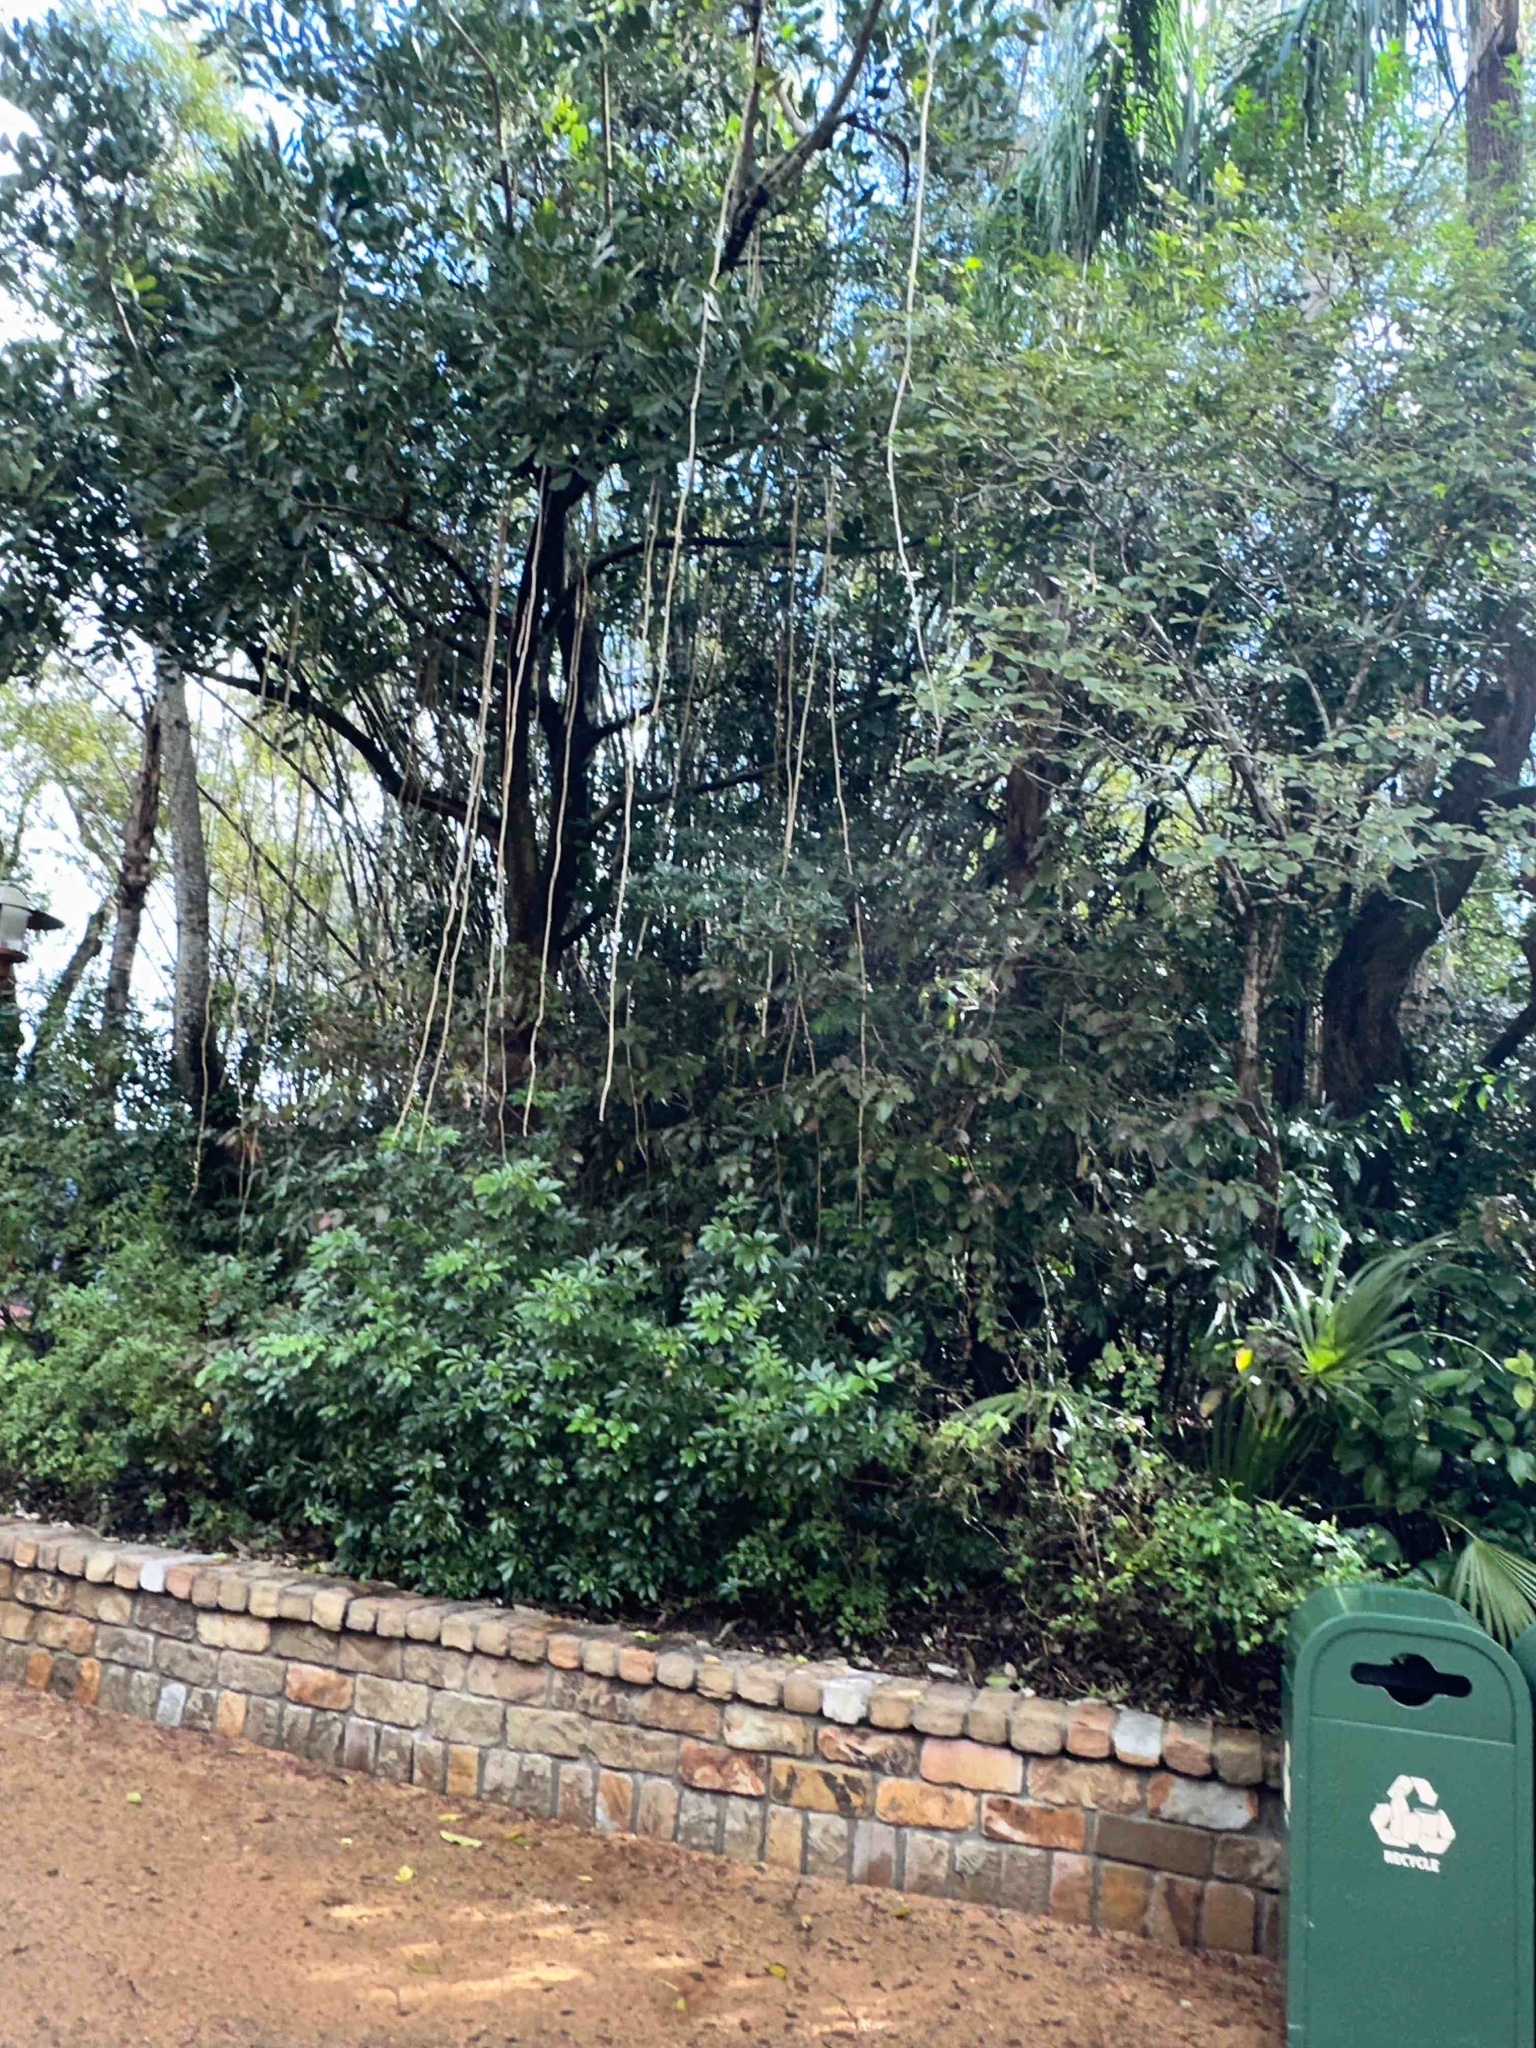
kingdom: Plantae
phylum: Tracheophyta
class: Magnoliopsida
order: Lamiales
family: Bignoniaceae
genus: Kigelia
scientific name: Kigelia africana
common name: Sausage tree
